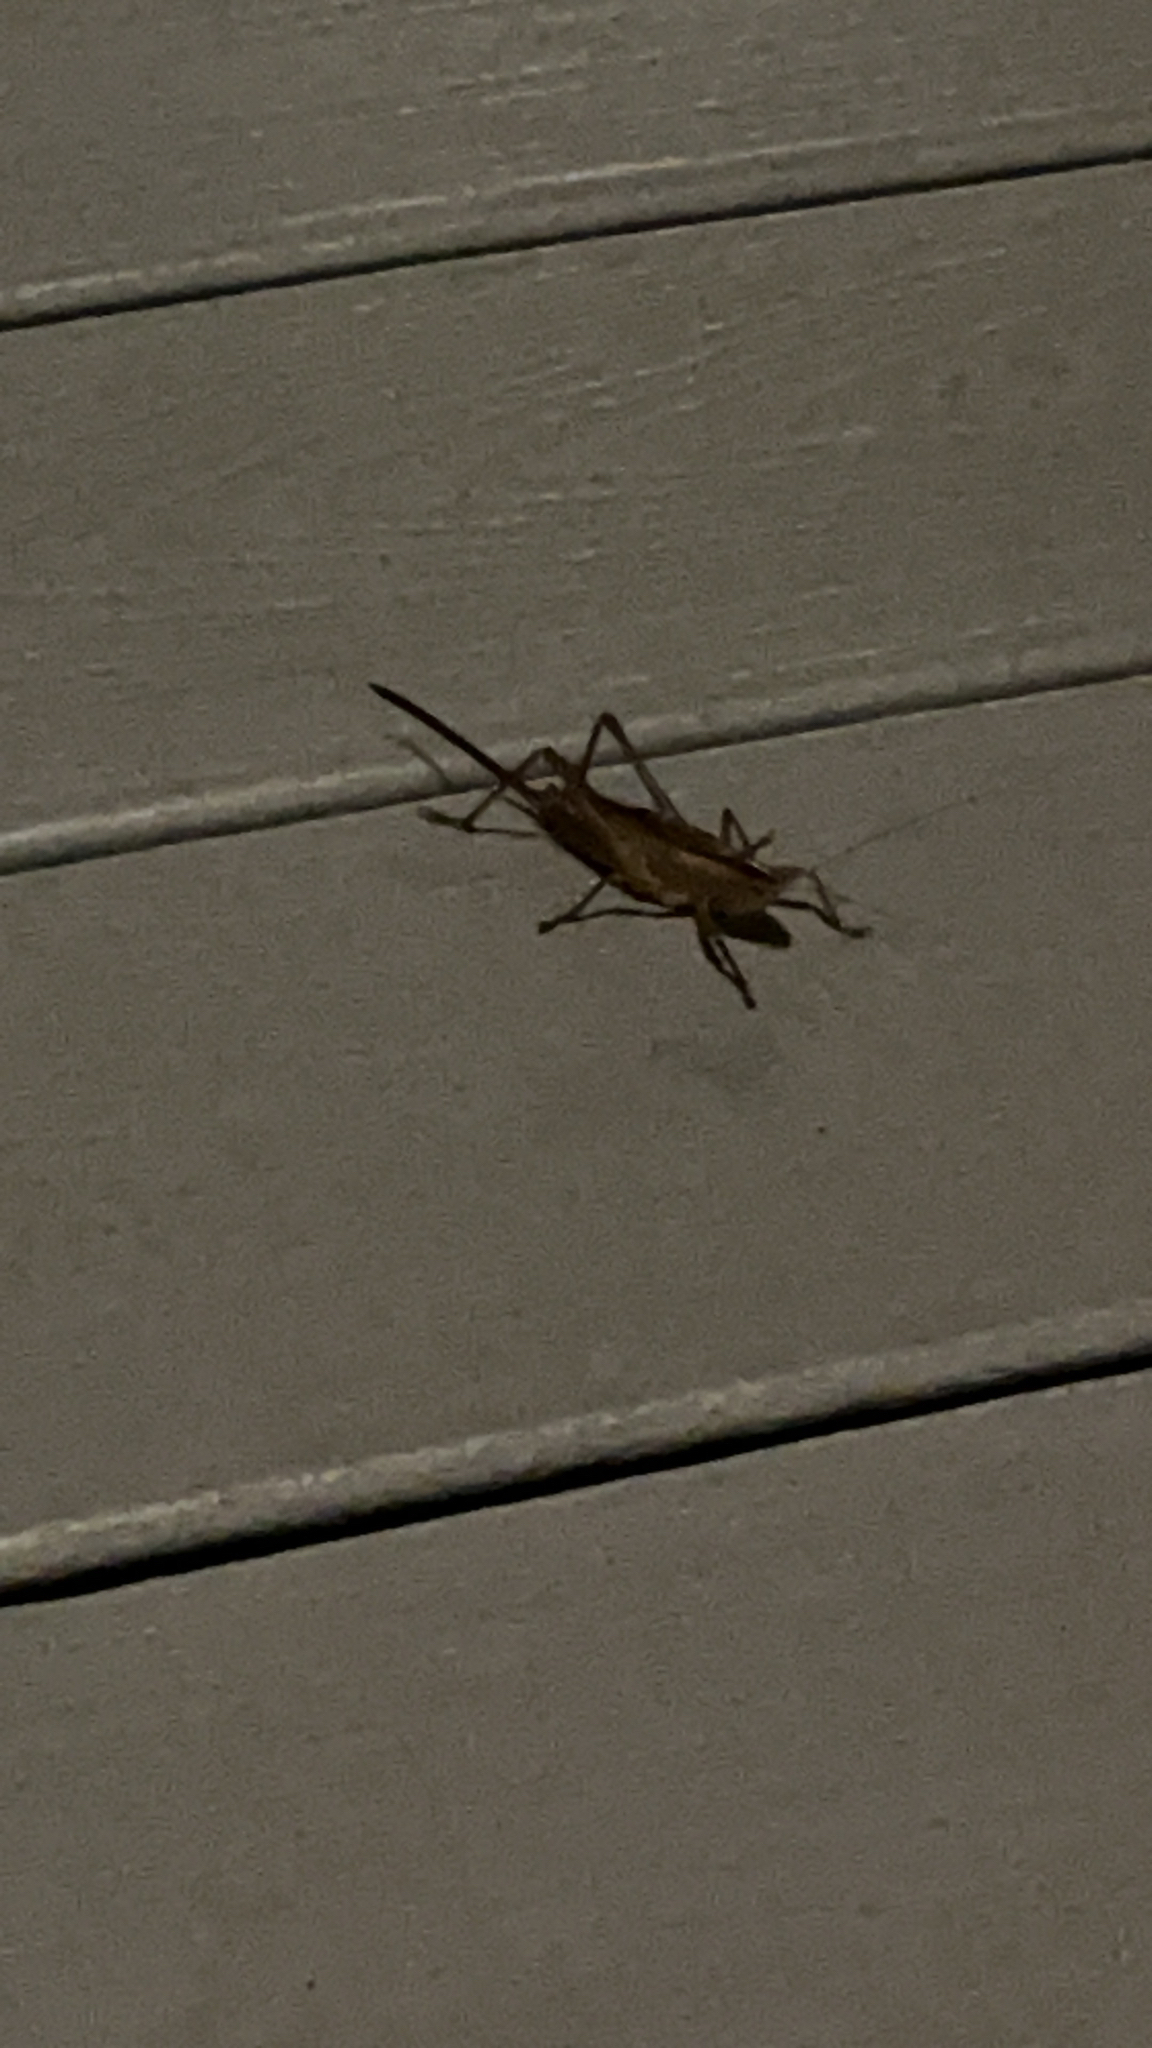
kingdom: Animalia
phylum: Arthropoda
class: Insecta
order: Orthoptera
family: Tettigoniidae
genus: Bucrates
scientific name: Bucrates malivolans
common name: Cattail conehead
